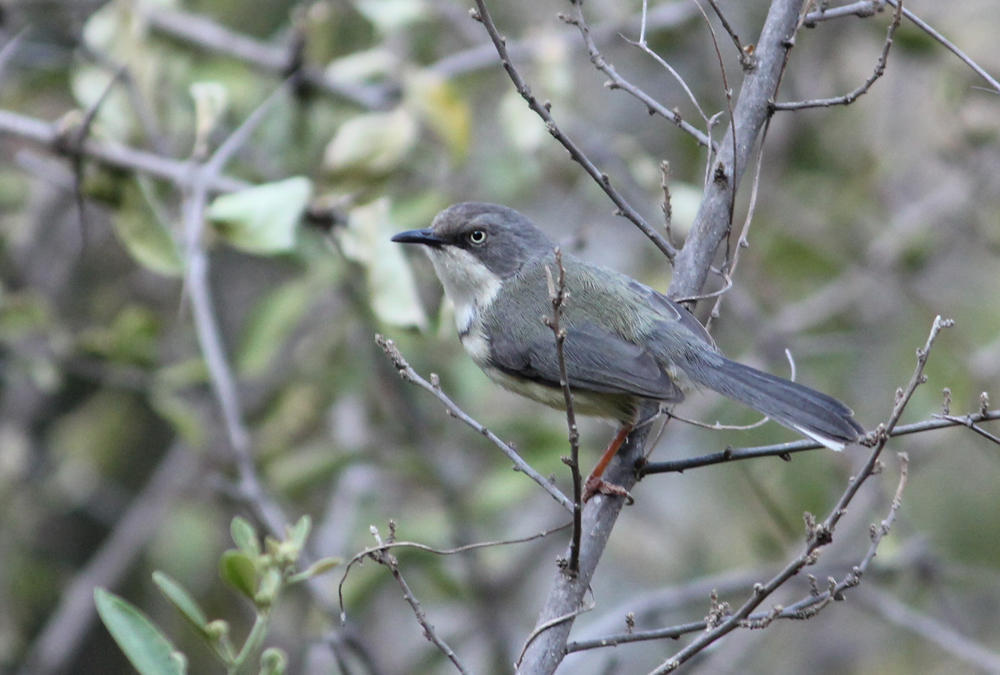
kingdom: Animalia
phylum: Chordata
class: Aves
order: Passeriformes
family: Cisticolidae
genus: Apalis
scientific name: Apalis thoracica
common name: Bar-throated apalis
